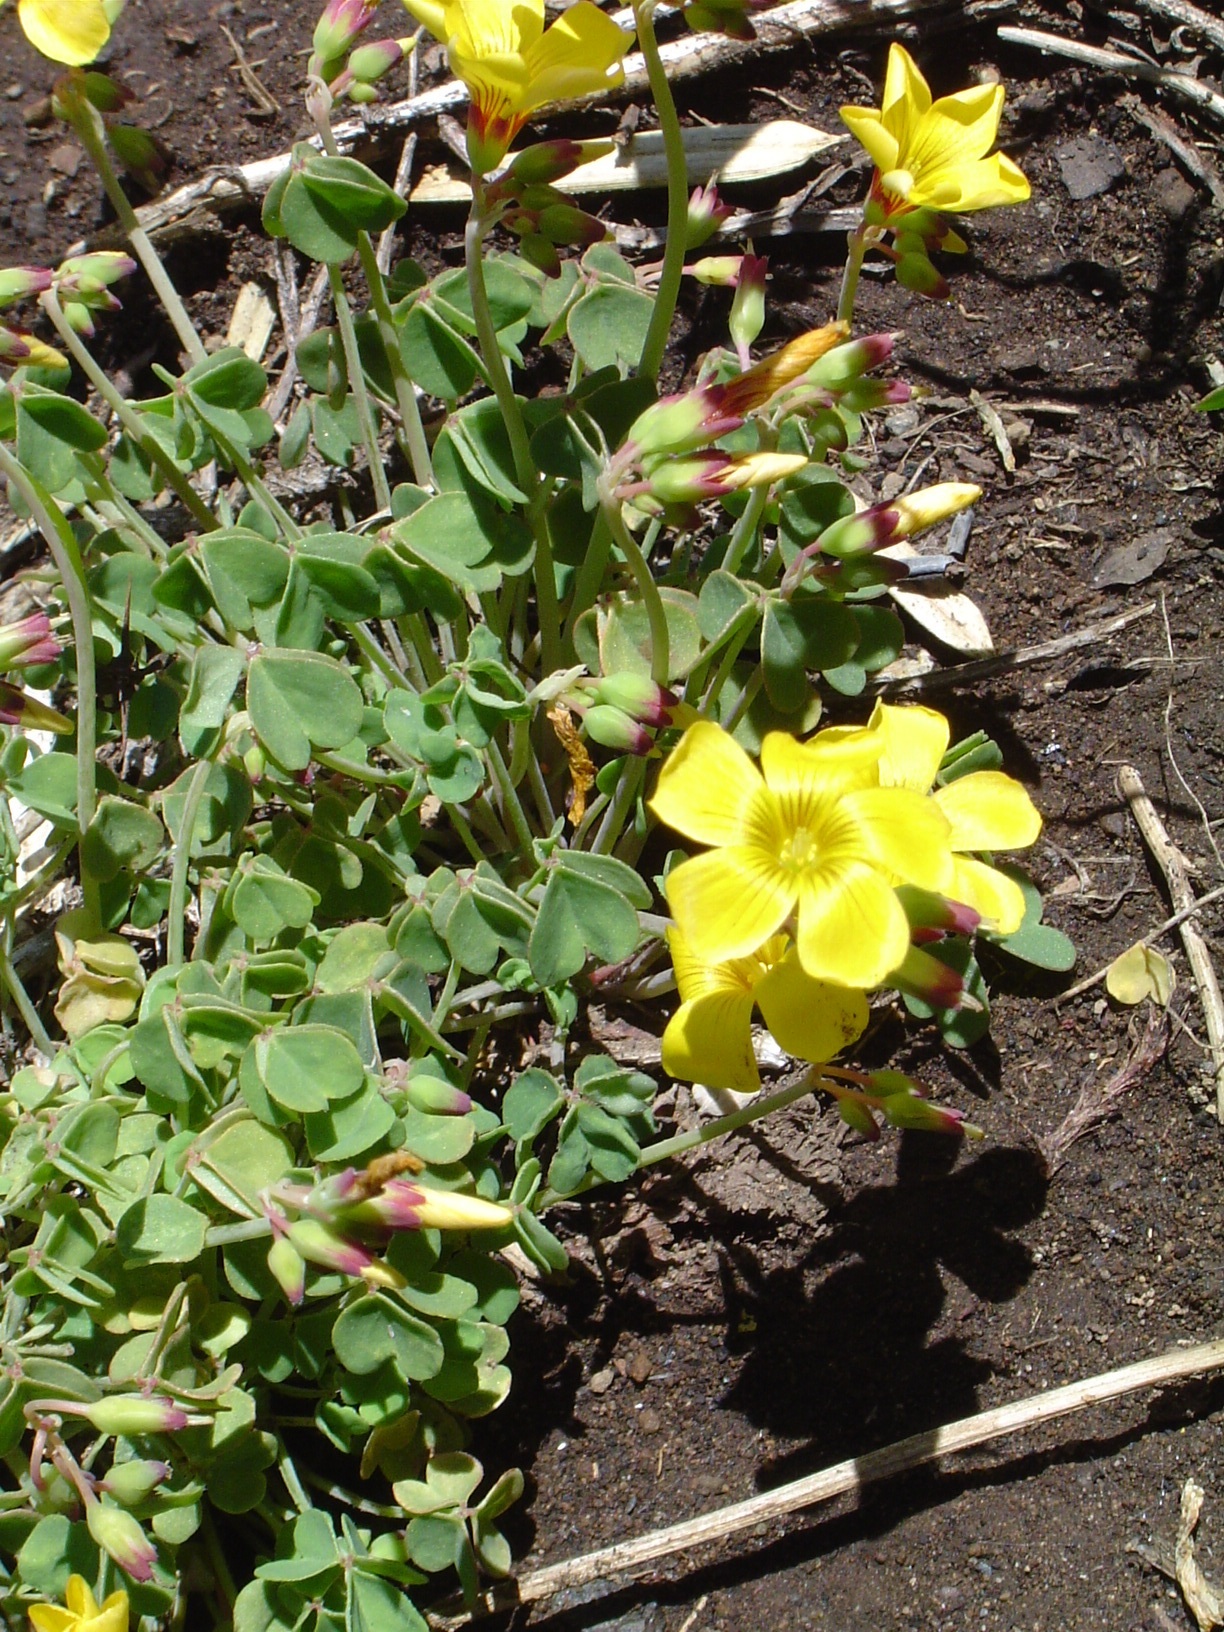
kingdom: Plantae
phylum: Tracheophyta
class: Magnoliopsida
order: Oxalidales
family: Oxalidaceae
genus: Oxalis
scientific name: Oxalis valdiviensis
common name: Chilean yellow-sorrel
